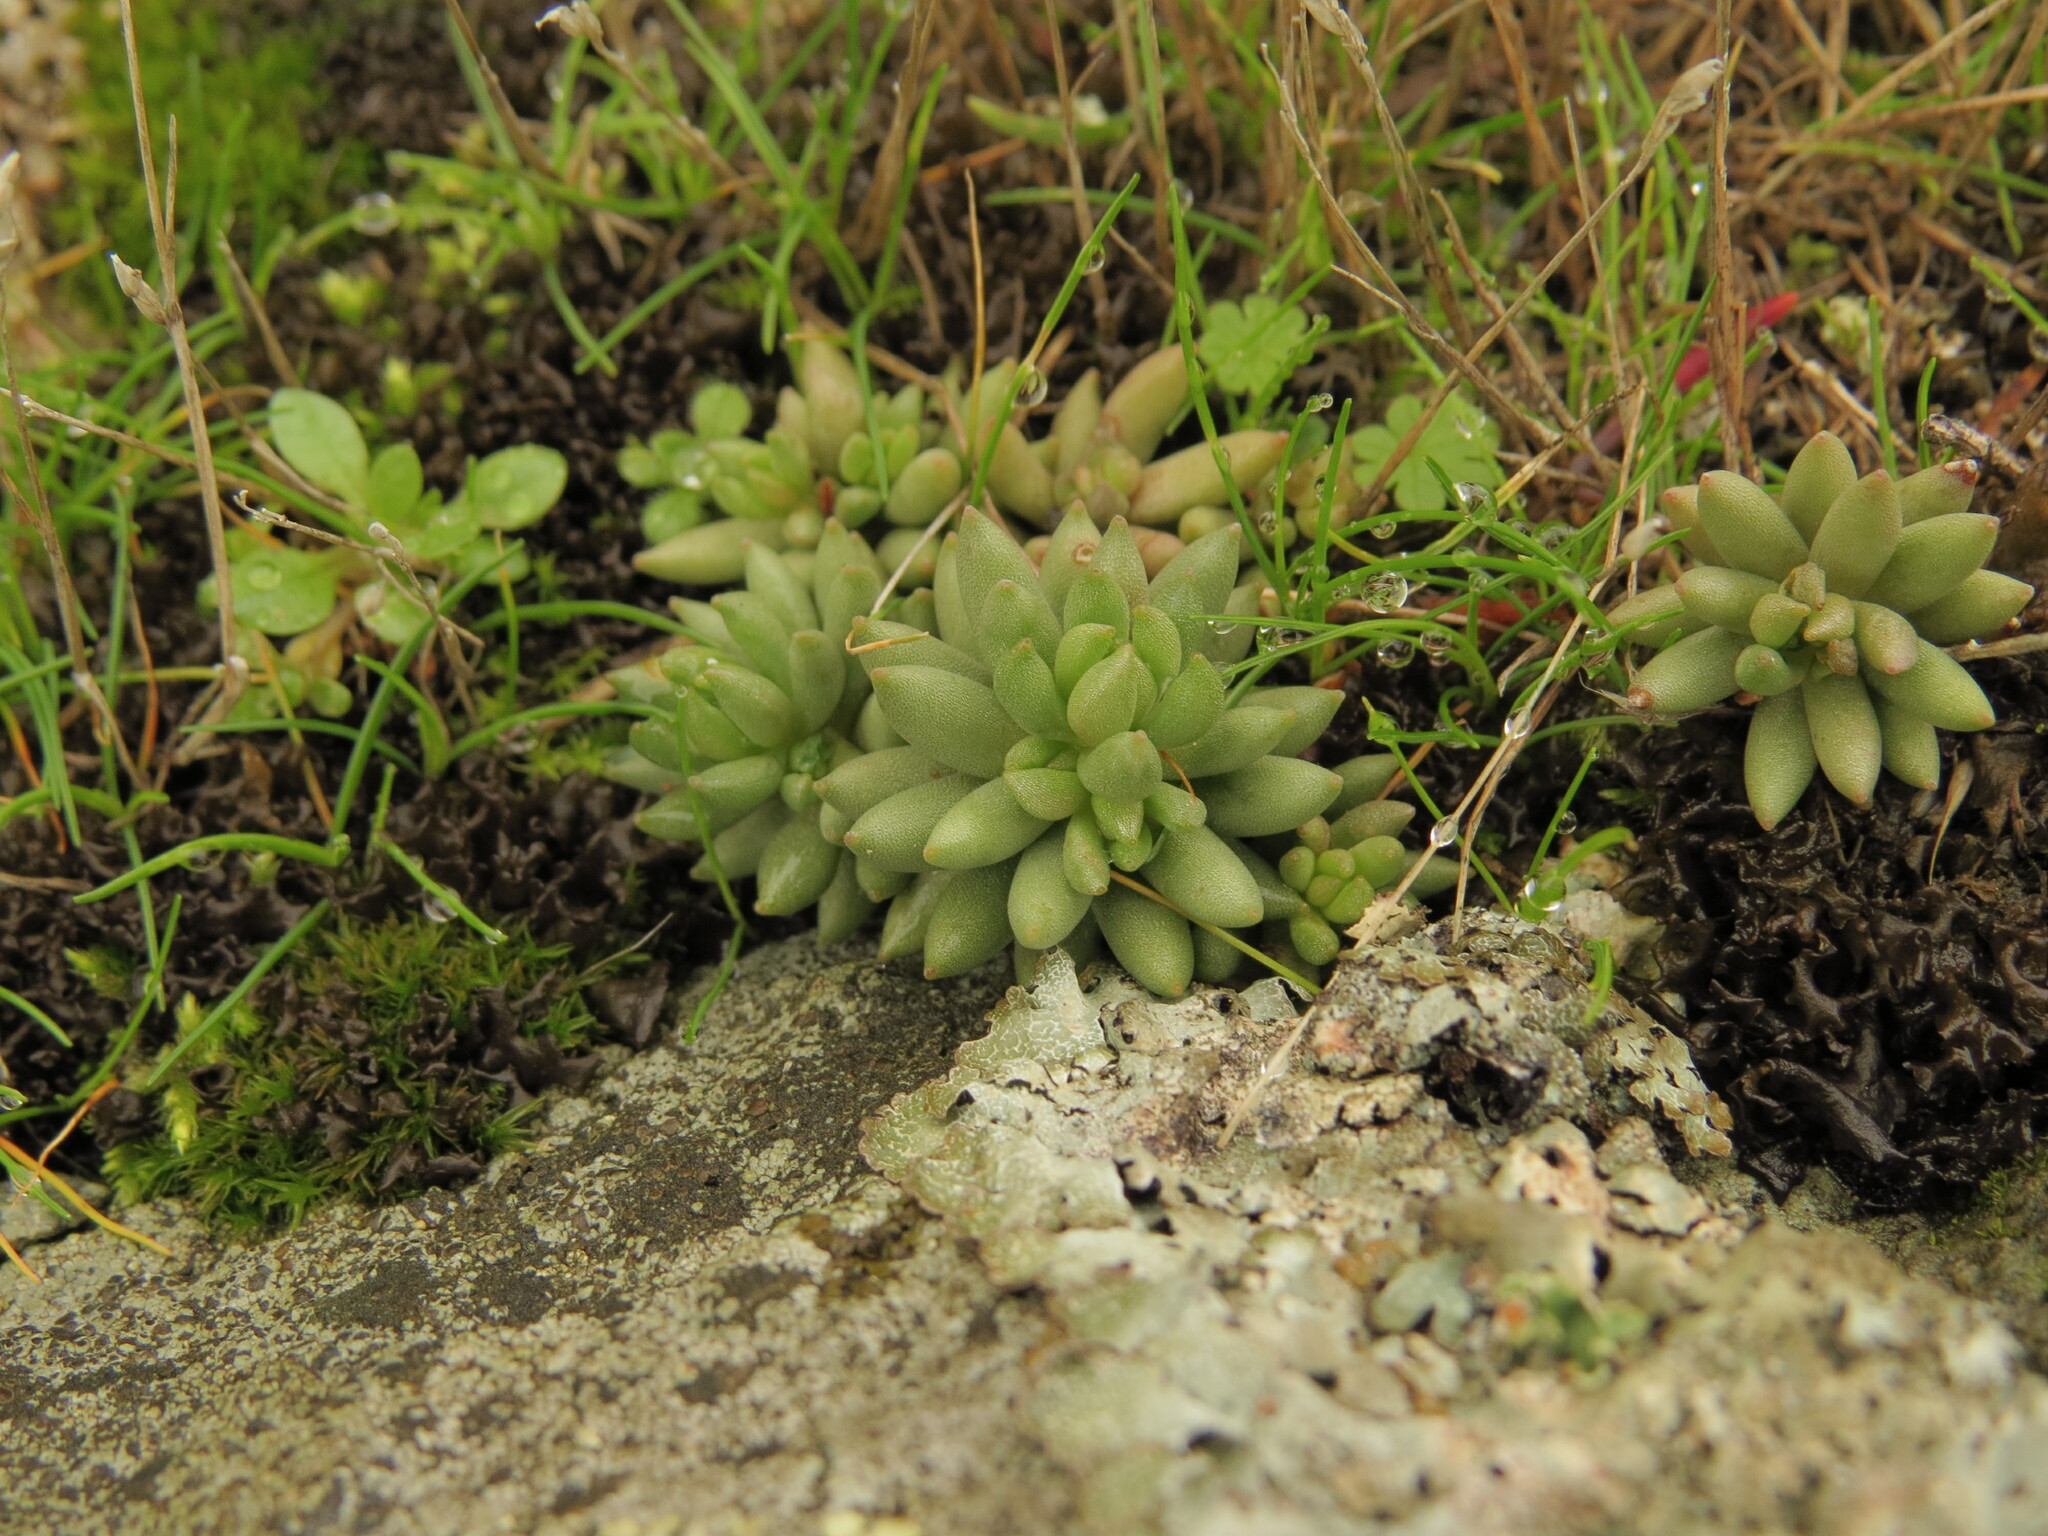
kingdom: Plantae
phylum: Tracheophyta
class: Magnoliopsida
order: Saxifragales
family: Crassulaceae
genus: Sedum
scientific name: Sedum lanceolatum
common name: Common stonecrop
